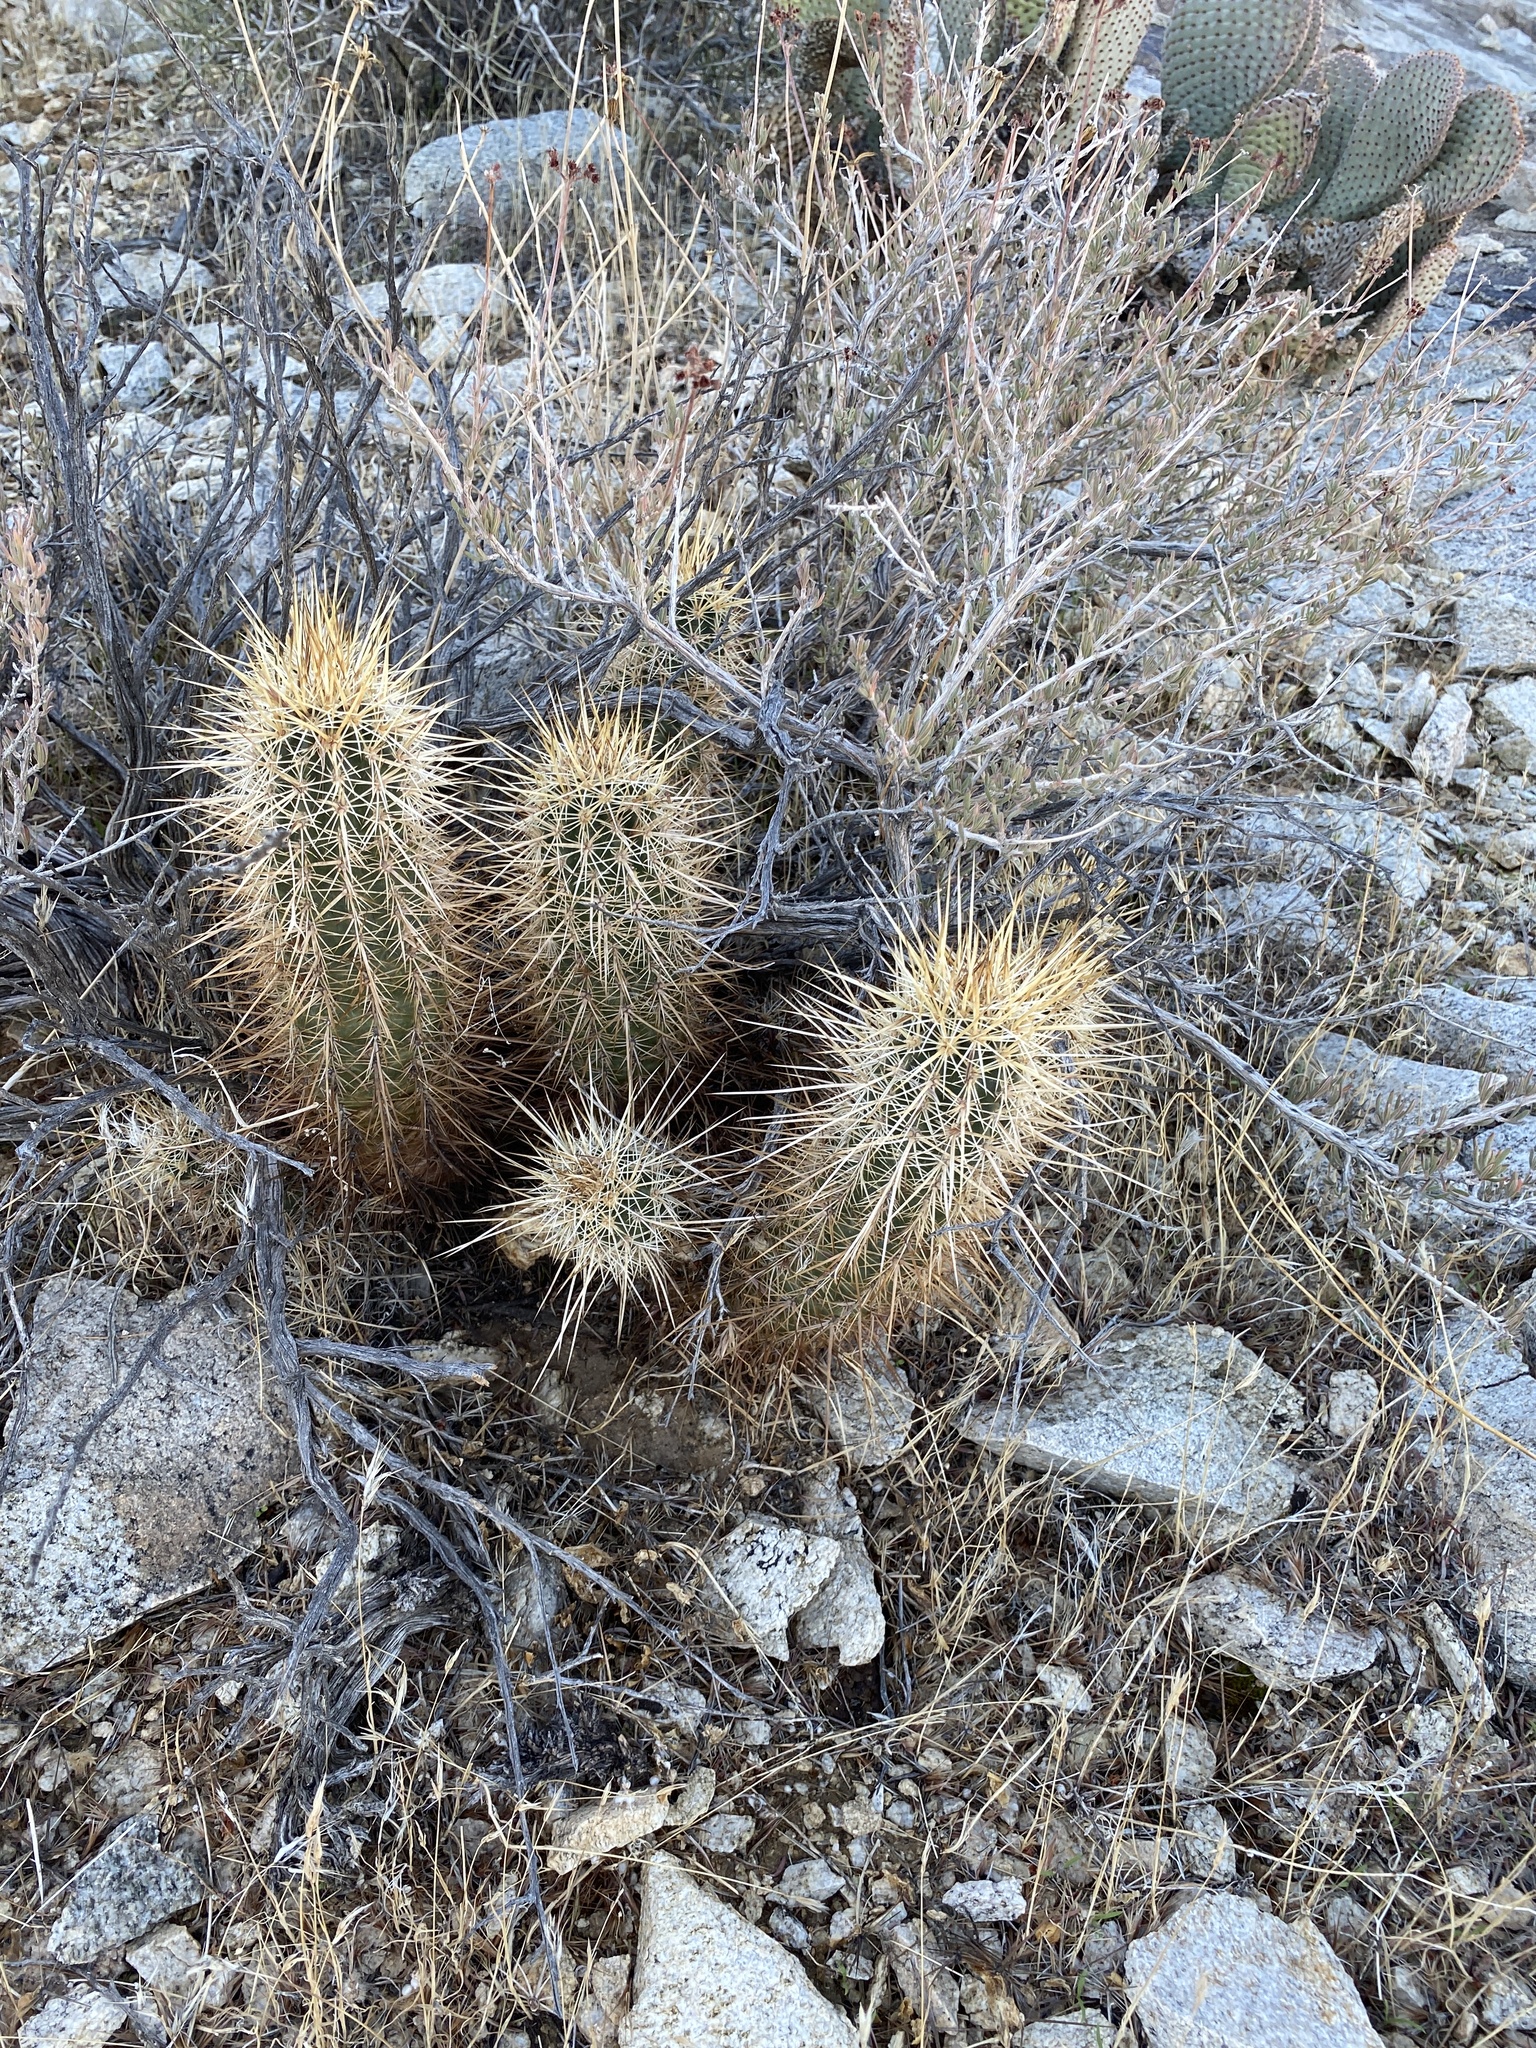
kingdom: Plantae
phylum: Tracheophyta
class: Magnoliopsida
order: Caryophyllales
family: Cactaceae
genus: Echinocereus
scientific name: Echinocereus engelmannii
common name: Engelmann's hedgehog cactus
